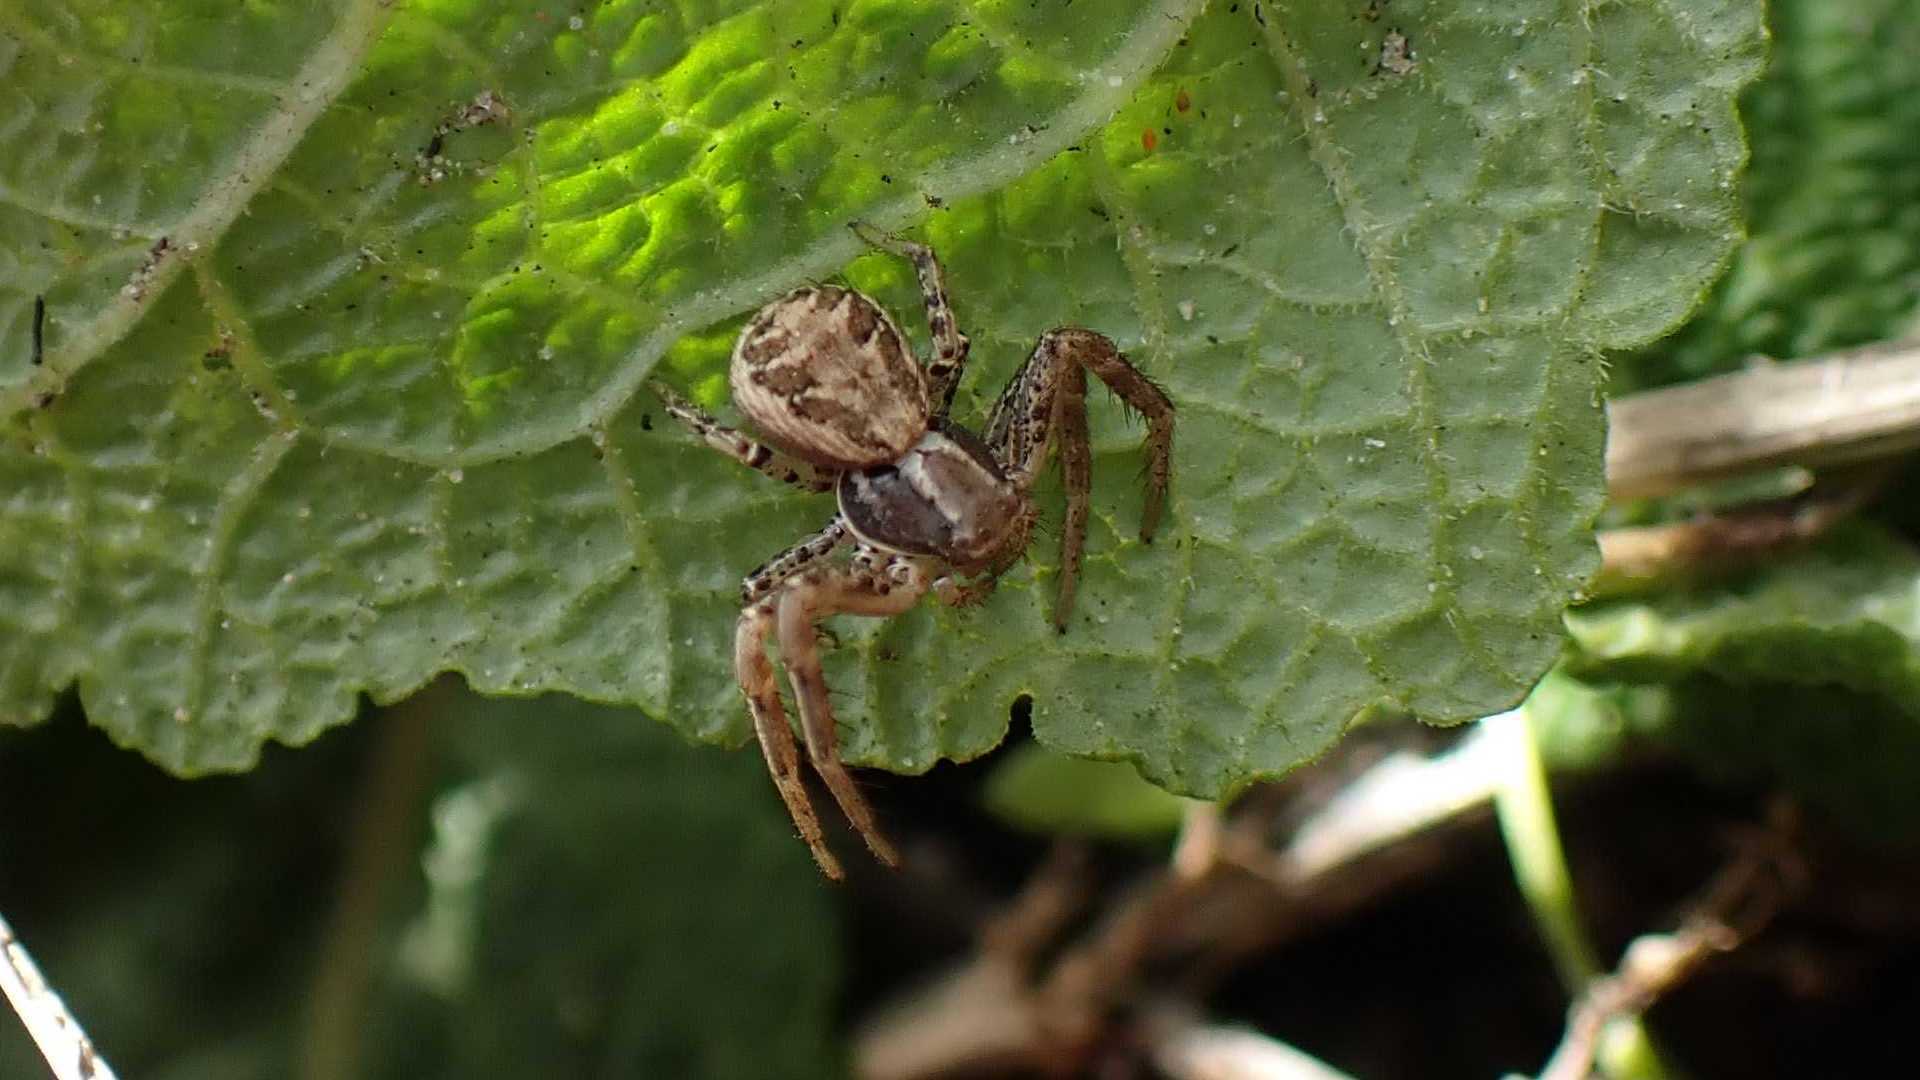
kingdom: Animalia
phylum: Arthropoda
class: Arachnida
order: Araneae
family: Thomisidae
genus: Xysticus
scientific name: Xysticus
